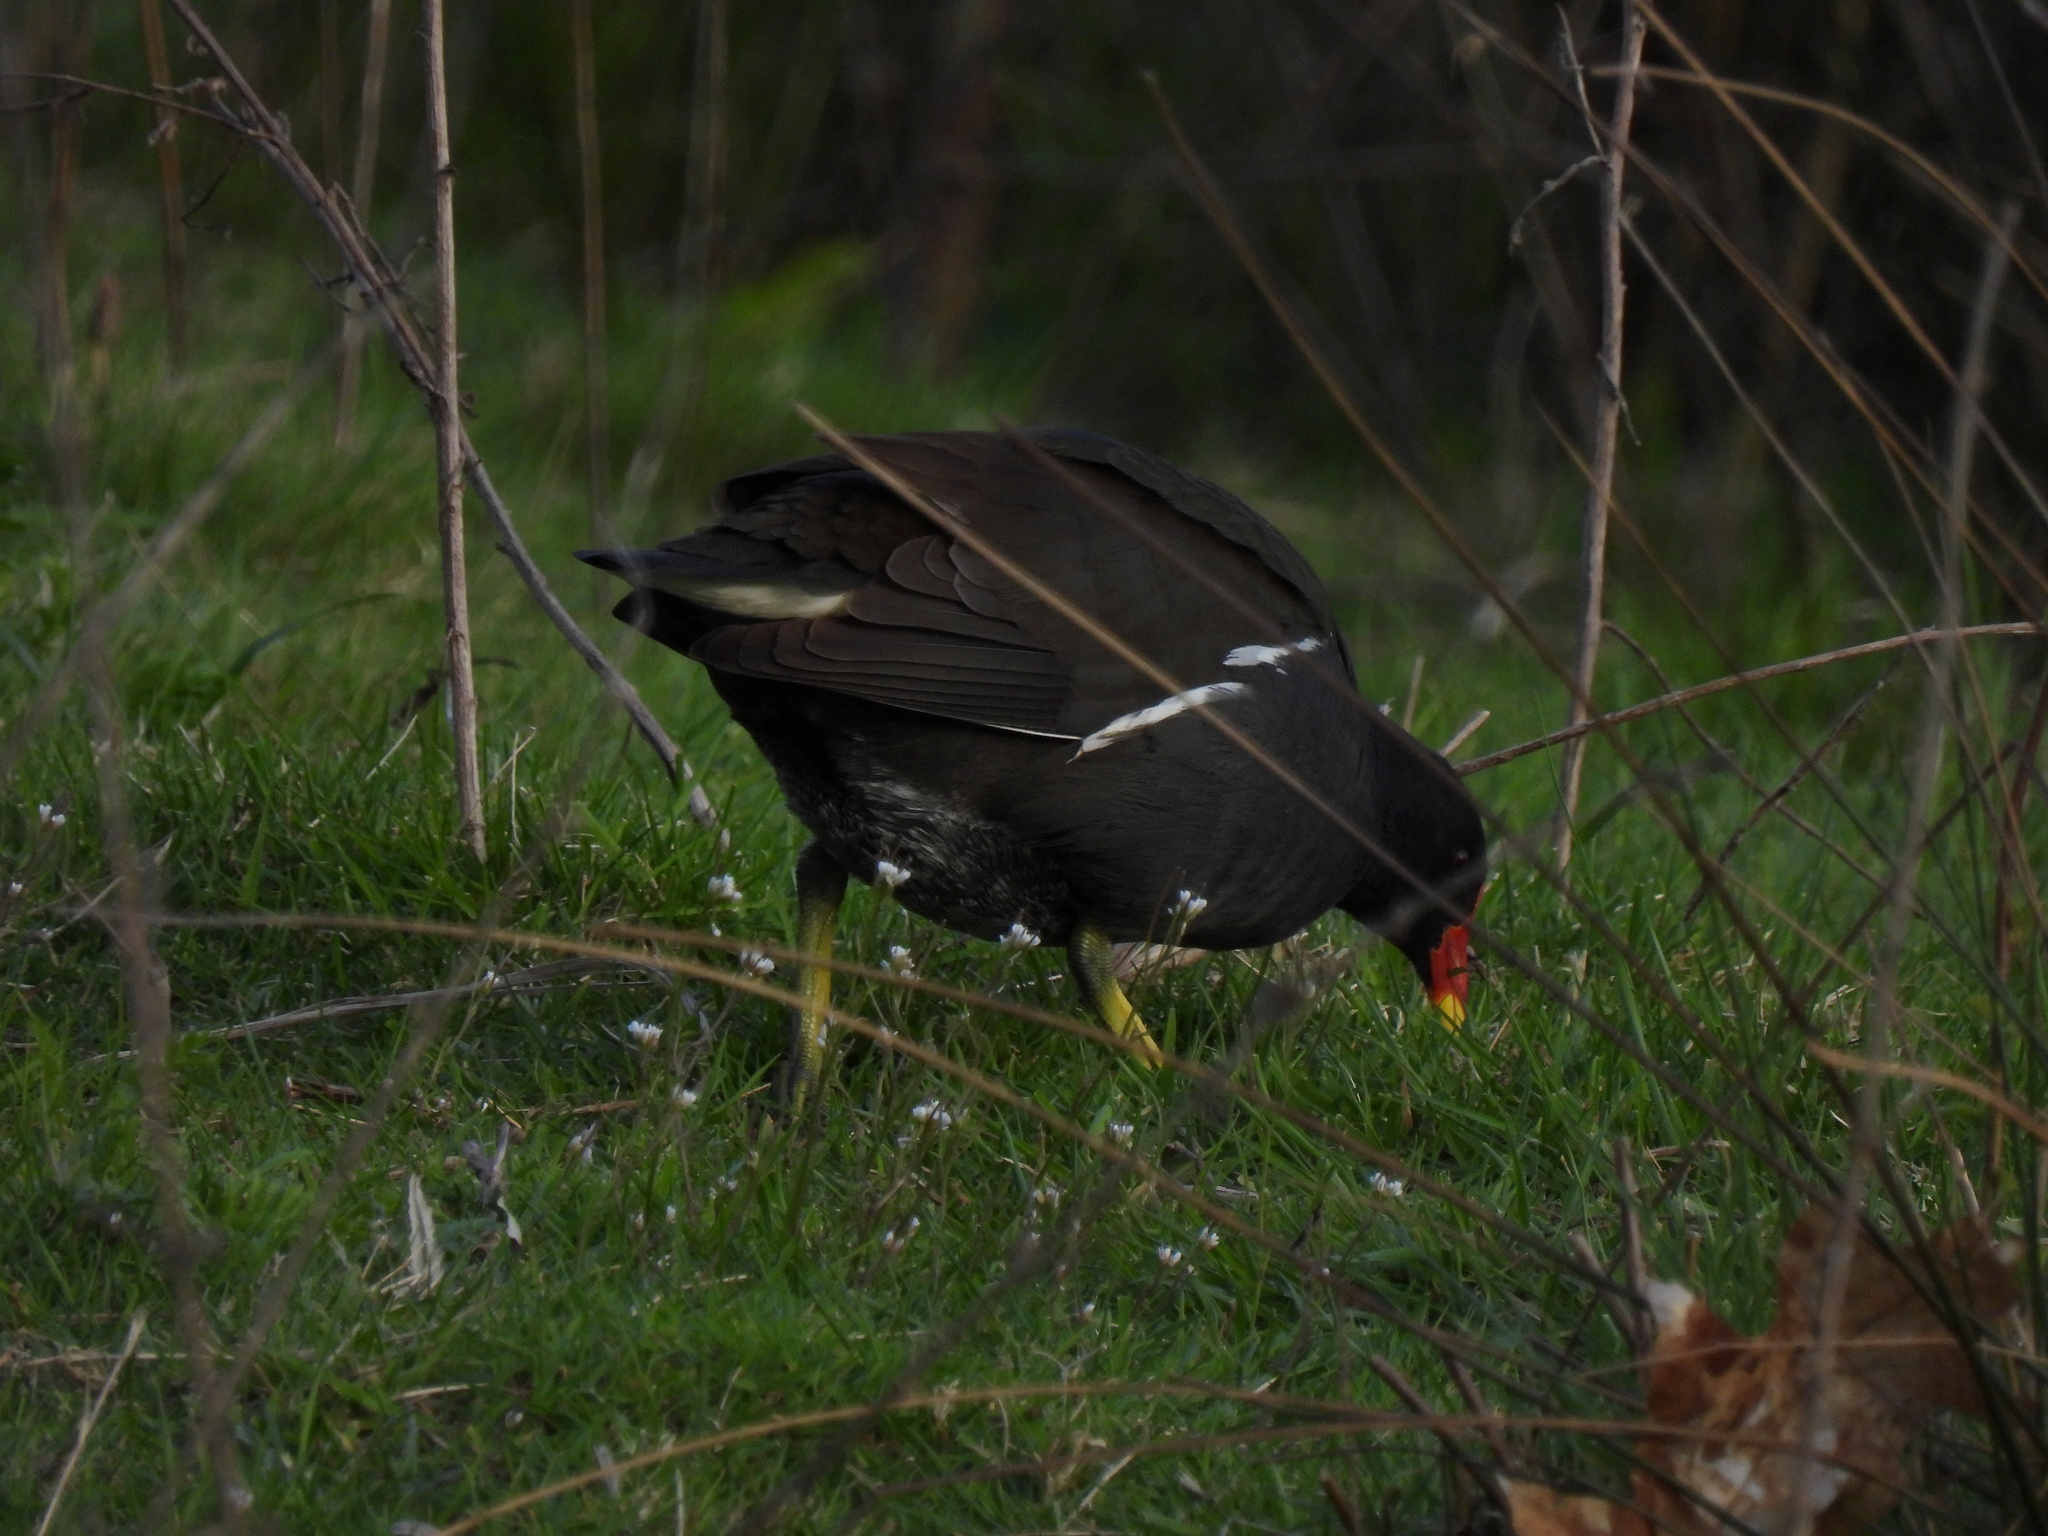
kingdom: Animalia
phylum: Chordata
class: Aves
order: Gruiformes
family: Rallidae
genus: Gallinula
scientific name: Gallinula chloropus
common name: Common moorhen
